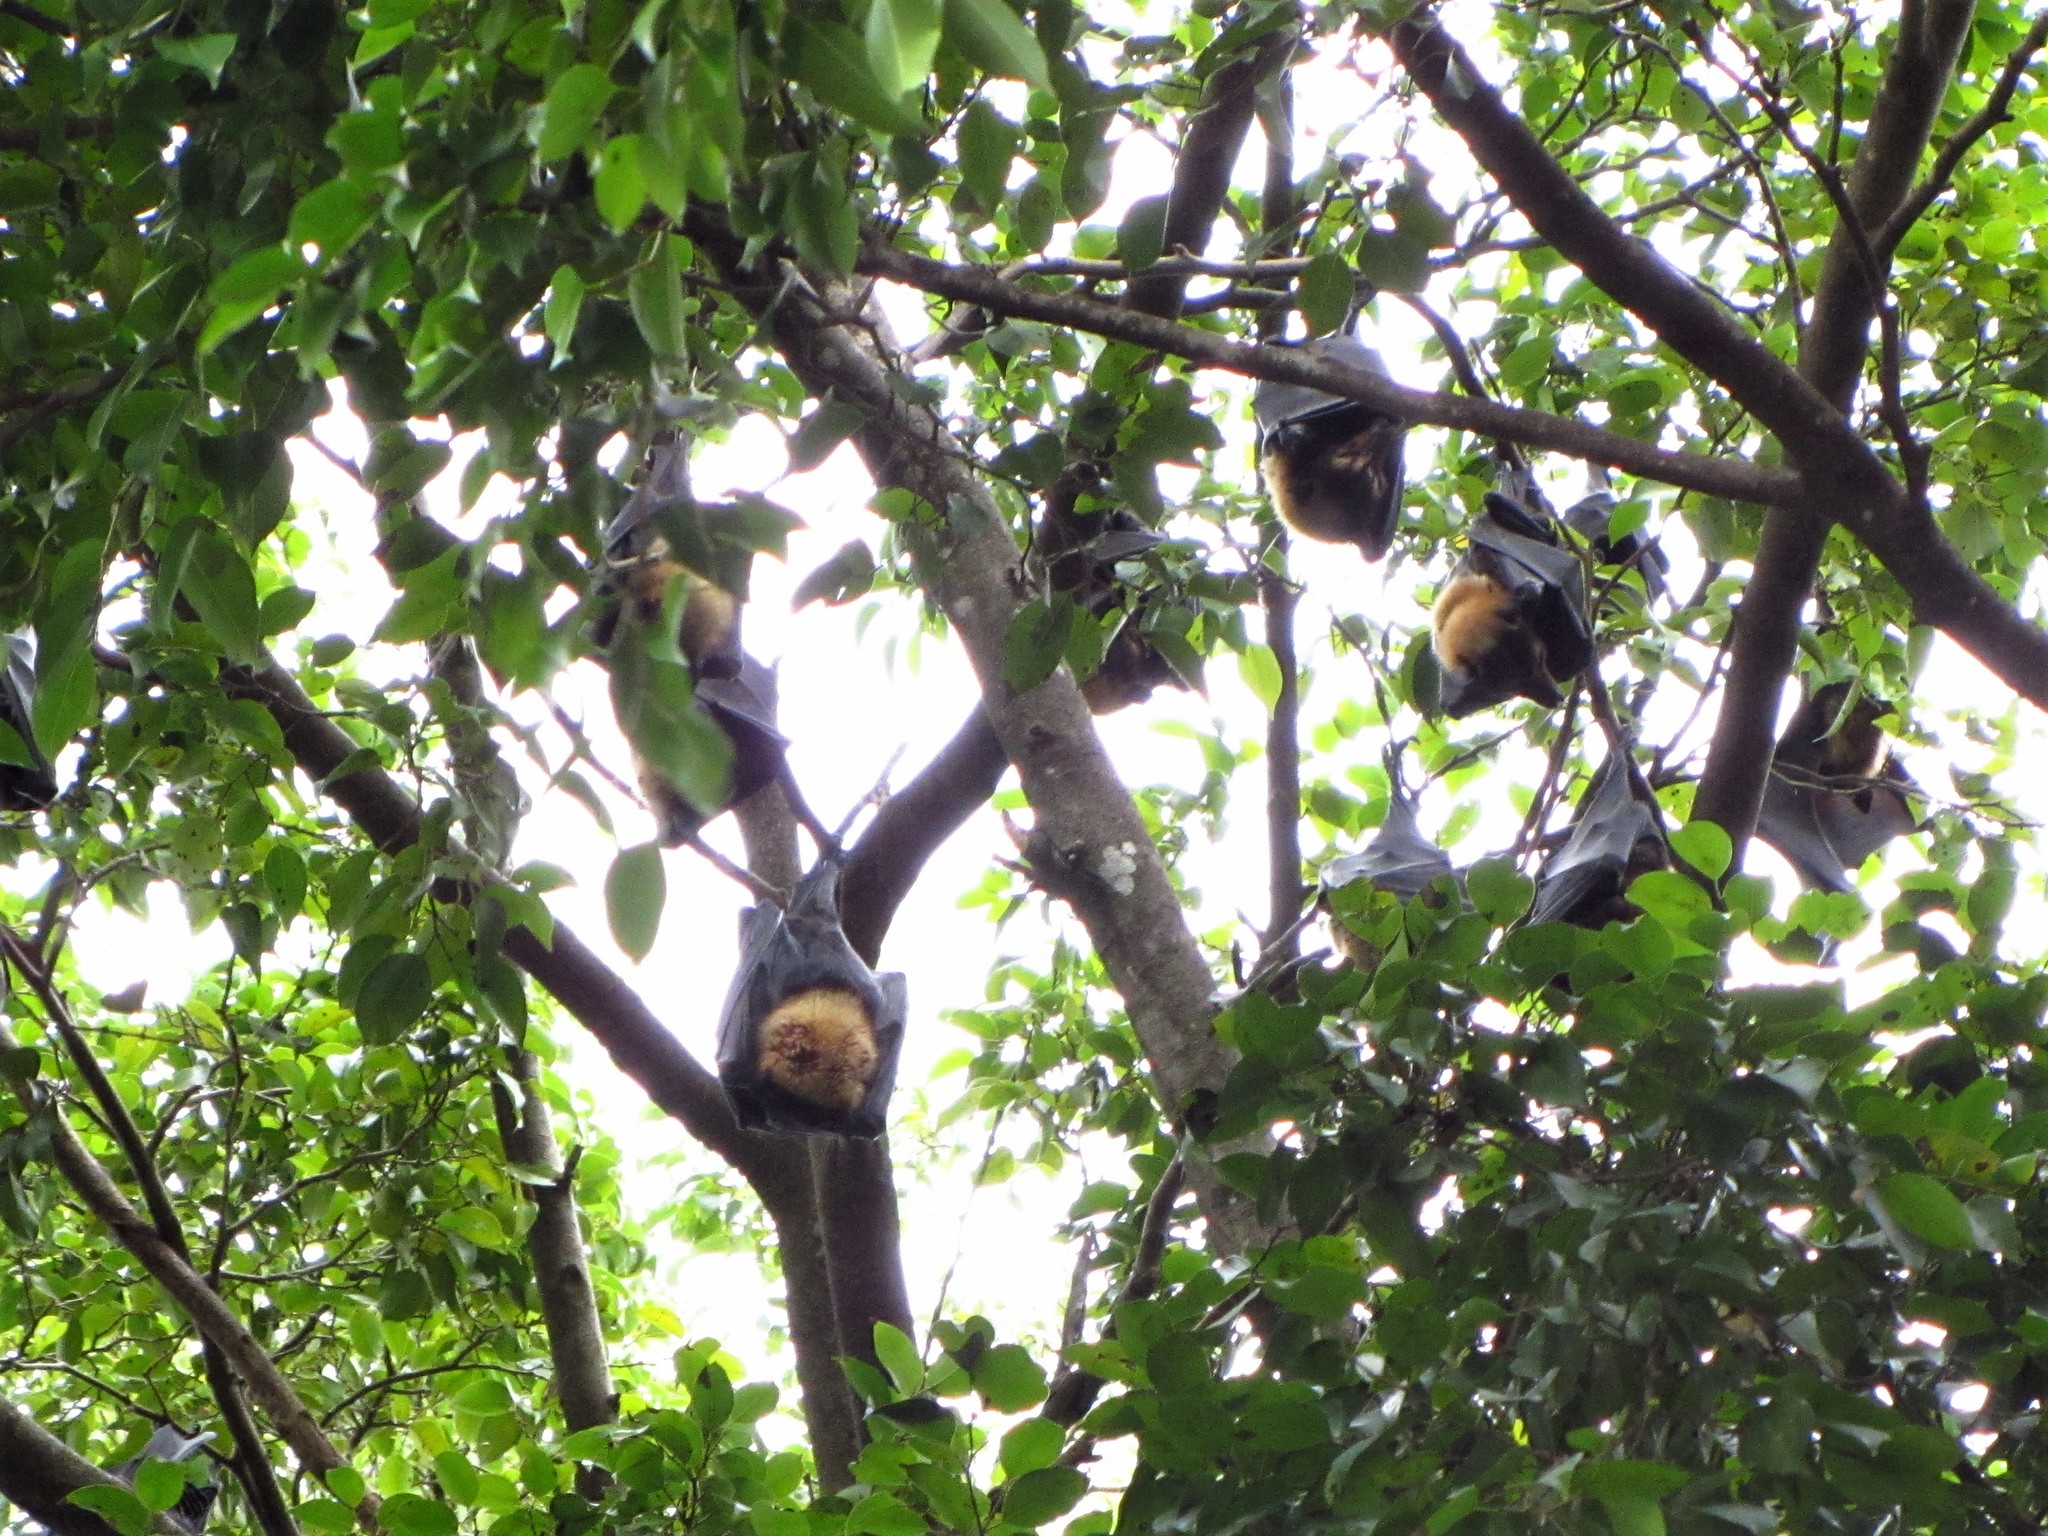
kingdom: Animalia
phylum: Chordata
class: Mammalia
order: Chiroptera
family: Pteropodidae
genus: Pteropus
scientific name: Pteropus conspicillatus
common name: Spectacled flying fox
